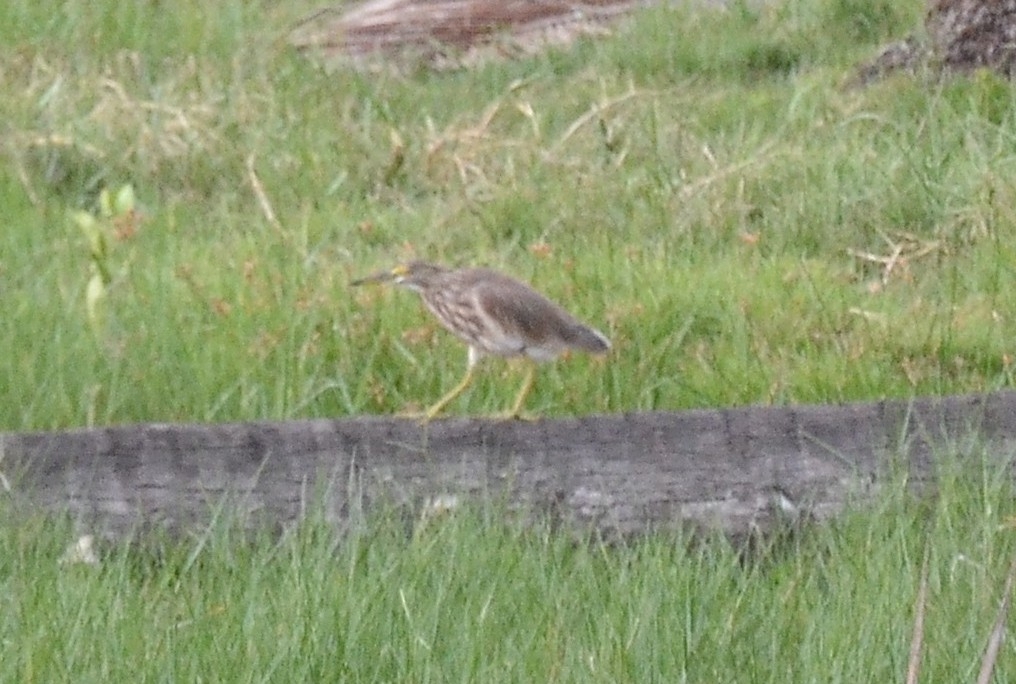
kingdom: Animalia
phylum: Chordata
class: Aves
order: Pelecaniformes
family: Ardeidae
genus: Ardeola
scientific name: Ardeola grayii
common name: Indian pond heron
